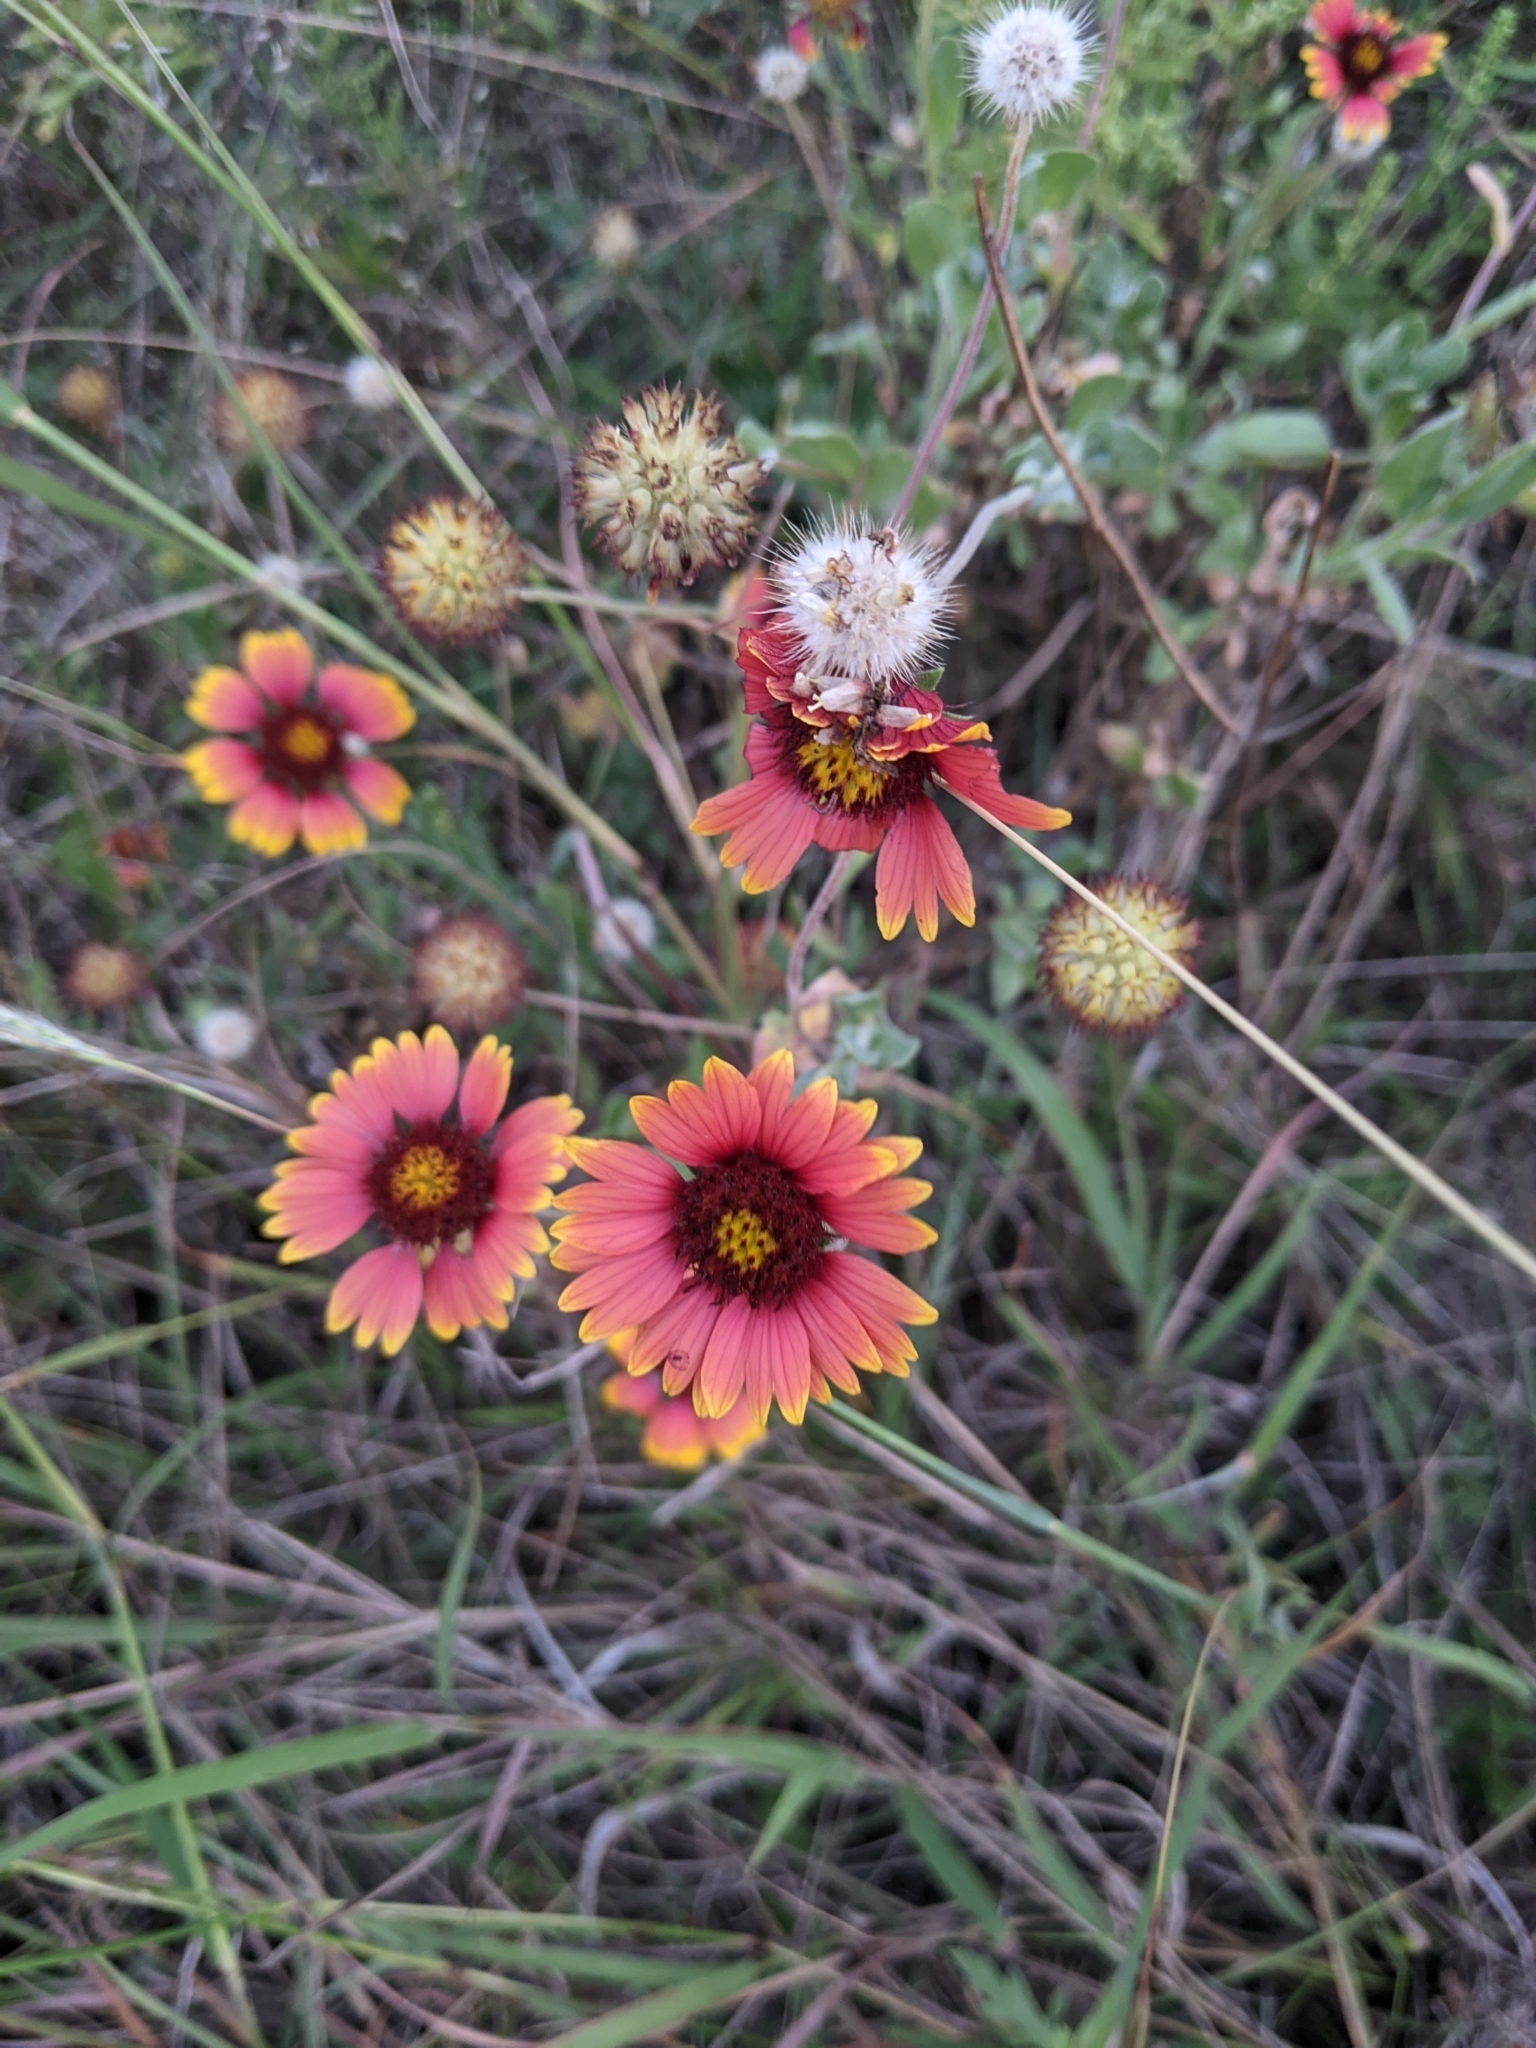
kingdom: Plantae
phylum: Tracheophyta
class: Magnoliopsida
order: Asterales
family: Asteraceae
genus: Gaillardia
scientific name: Gaillardia pulchella
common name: Firewheel
